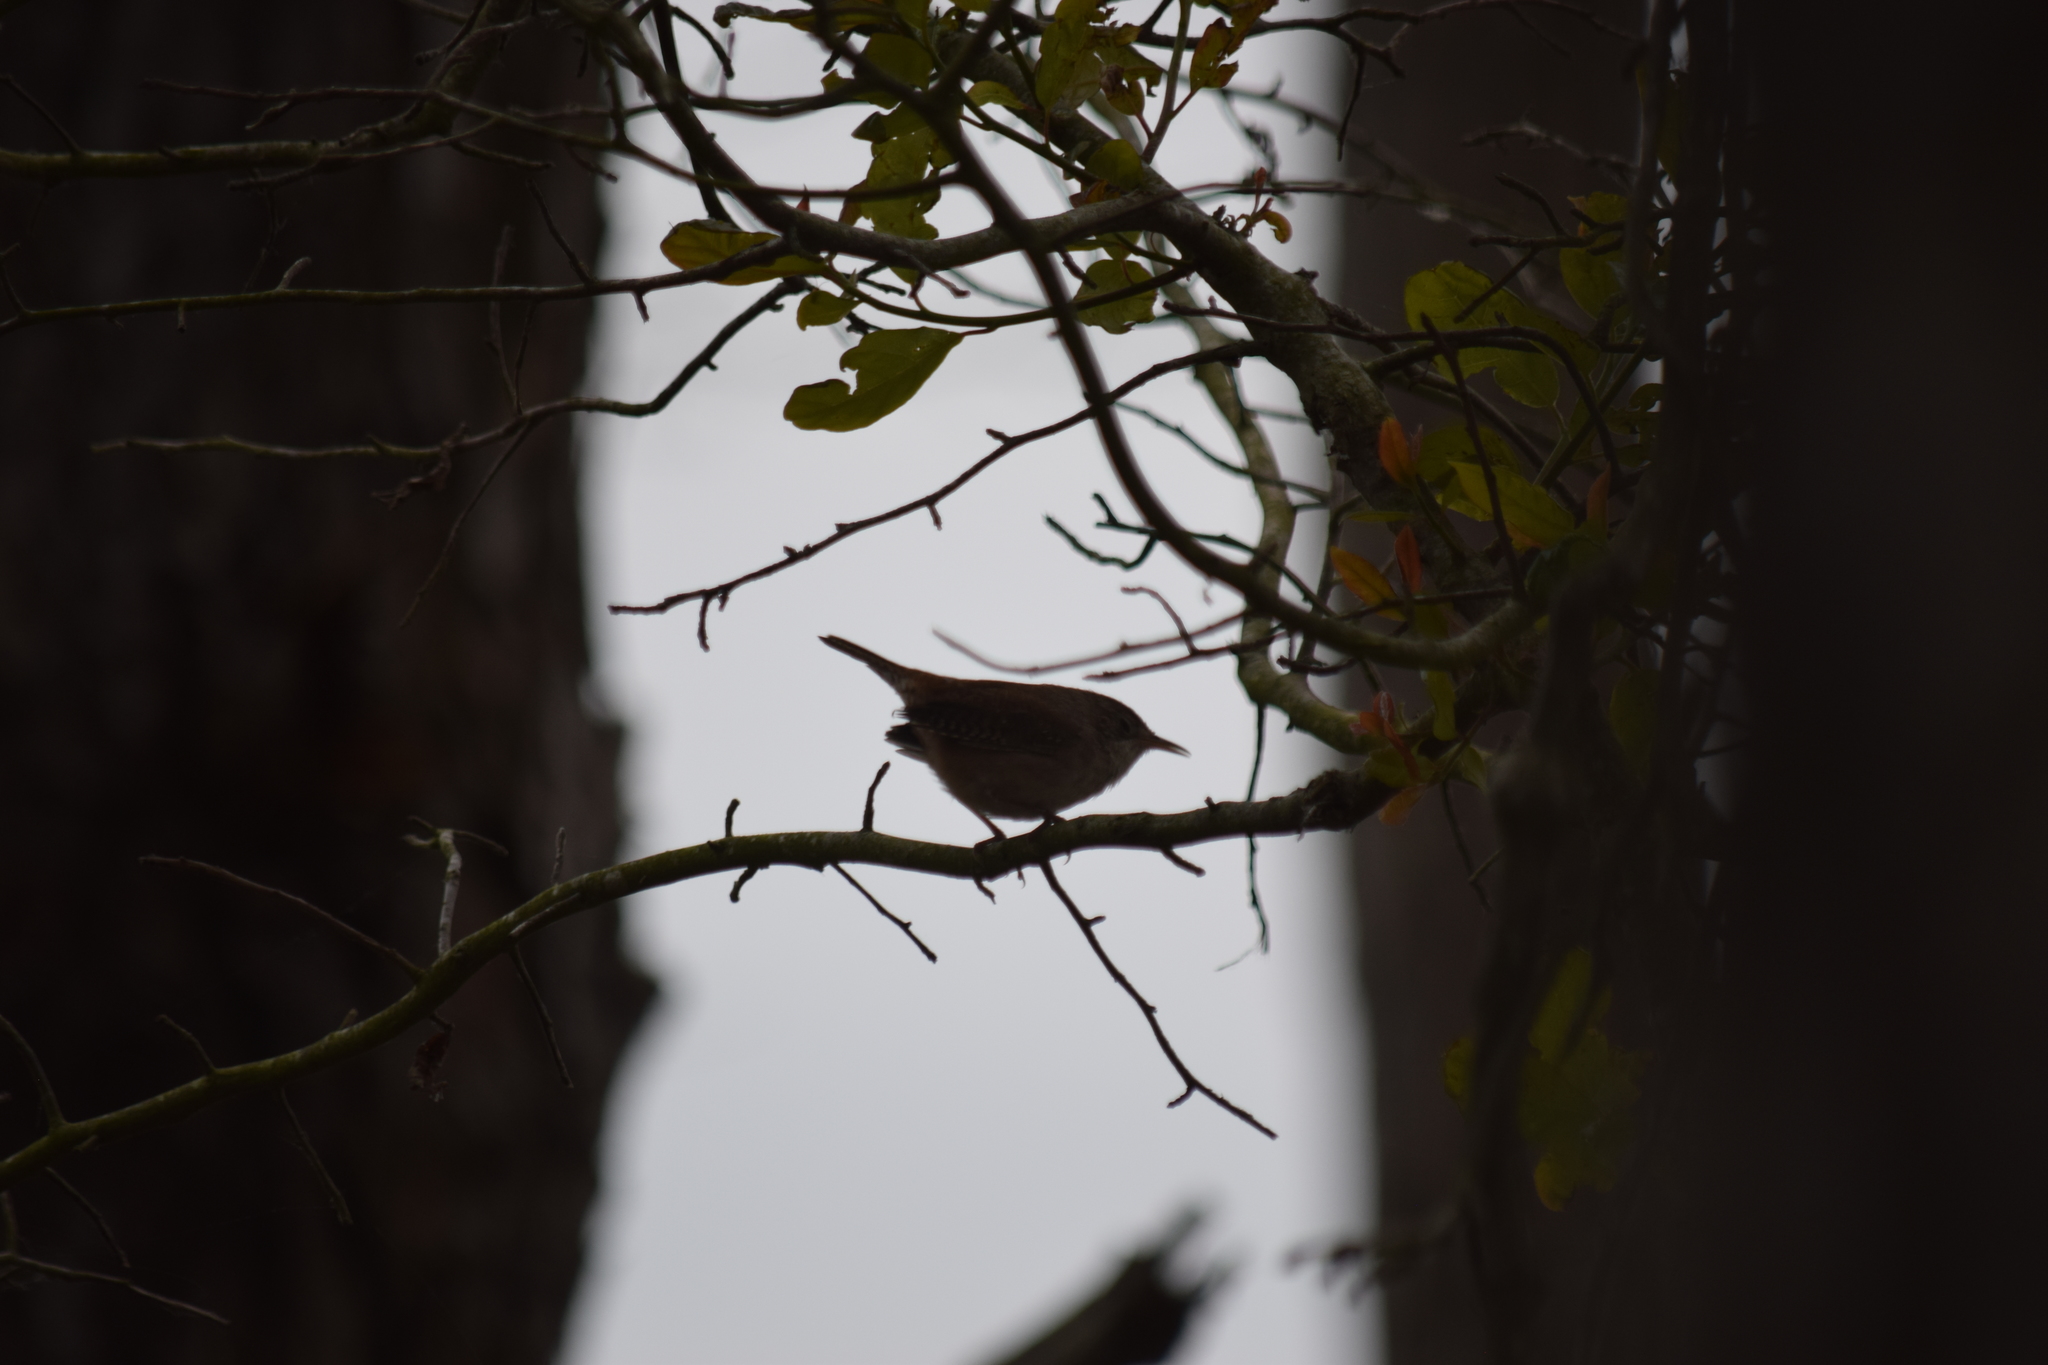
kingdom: Animalia
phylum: Chordata
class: Aves
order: Passeriformes
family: Troglodytidae
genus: Troglodytes
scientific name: Troglodytes aedon
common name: House wren
